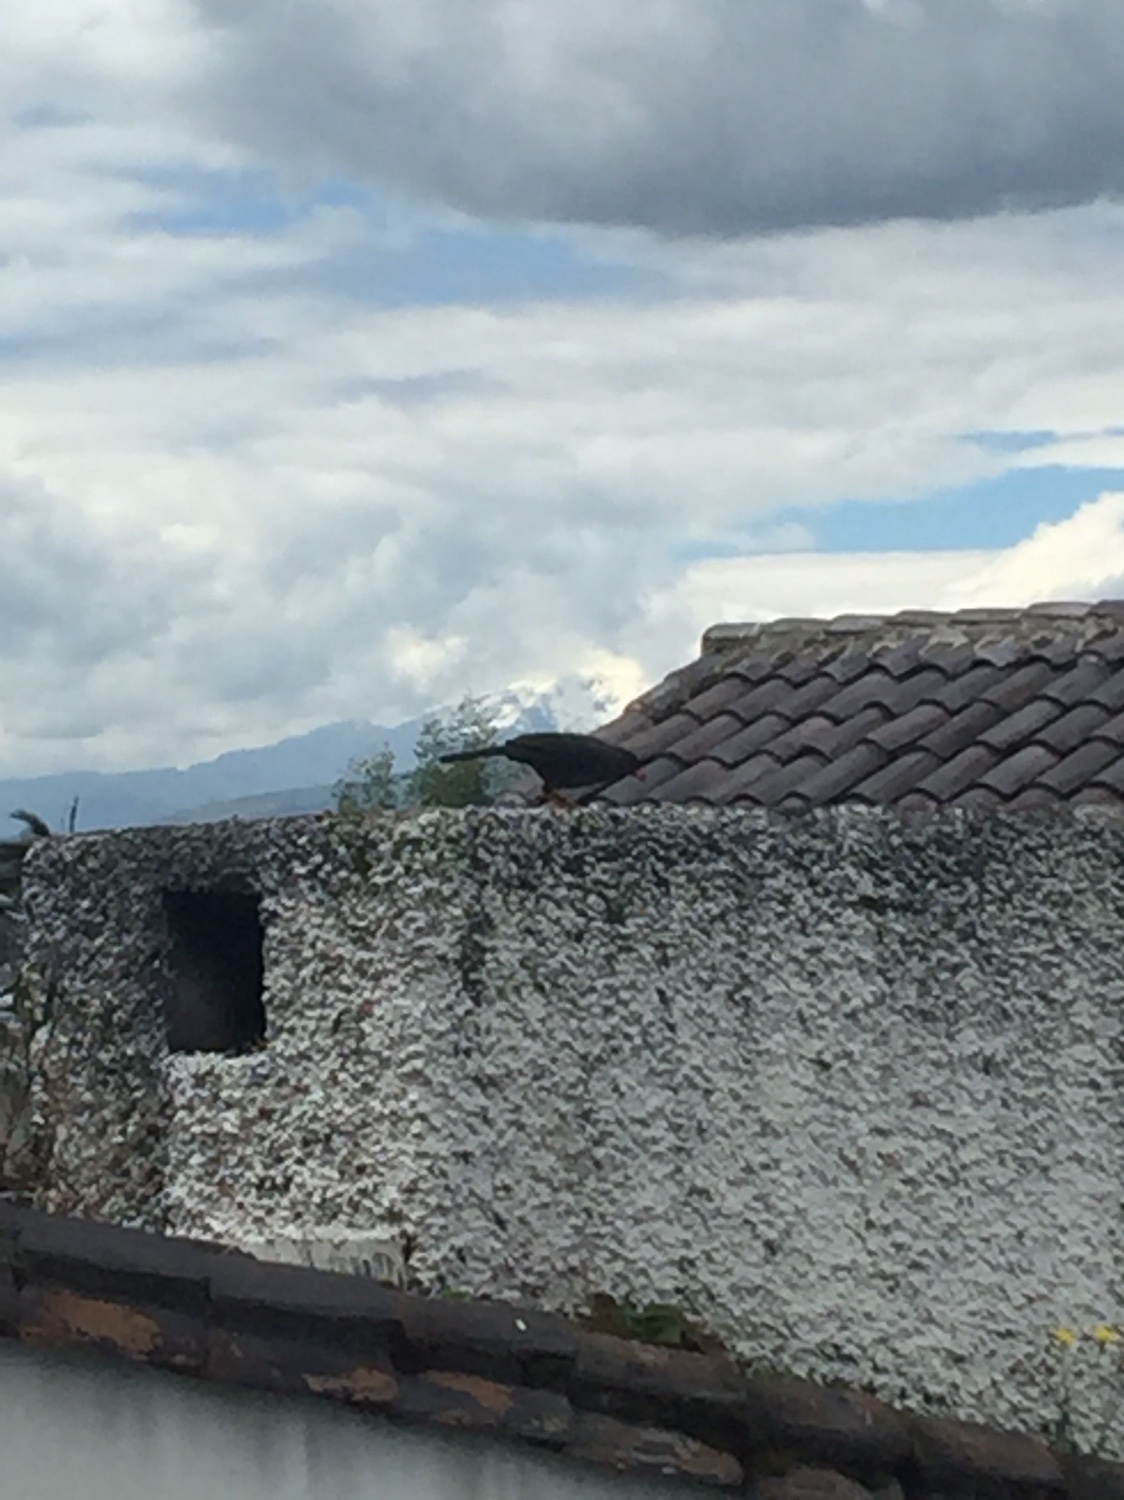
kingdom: Animalia
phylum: Chordata
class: Aves
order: Passeriformes
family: Turdidae
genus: Turdus
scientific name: Turdus fuscater
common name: Great thrush
